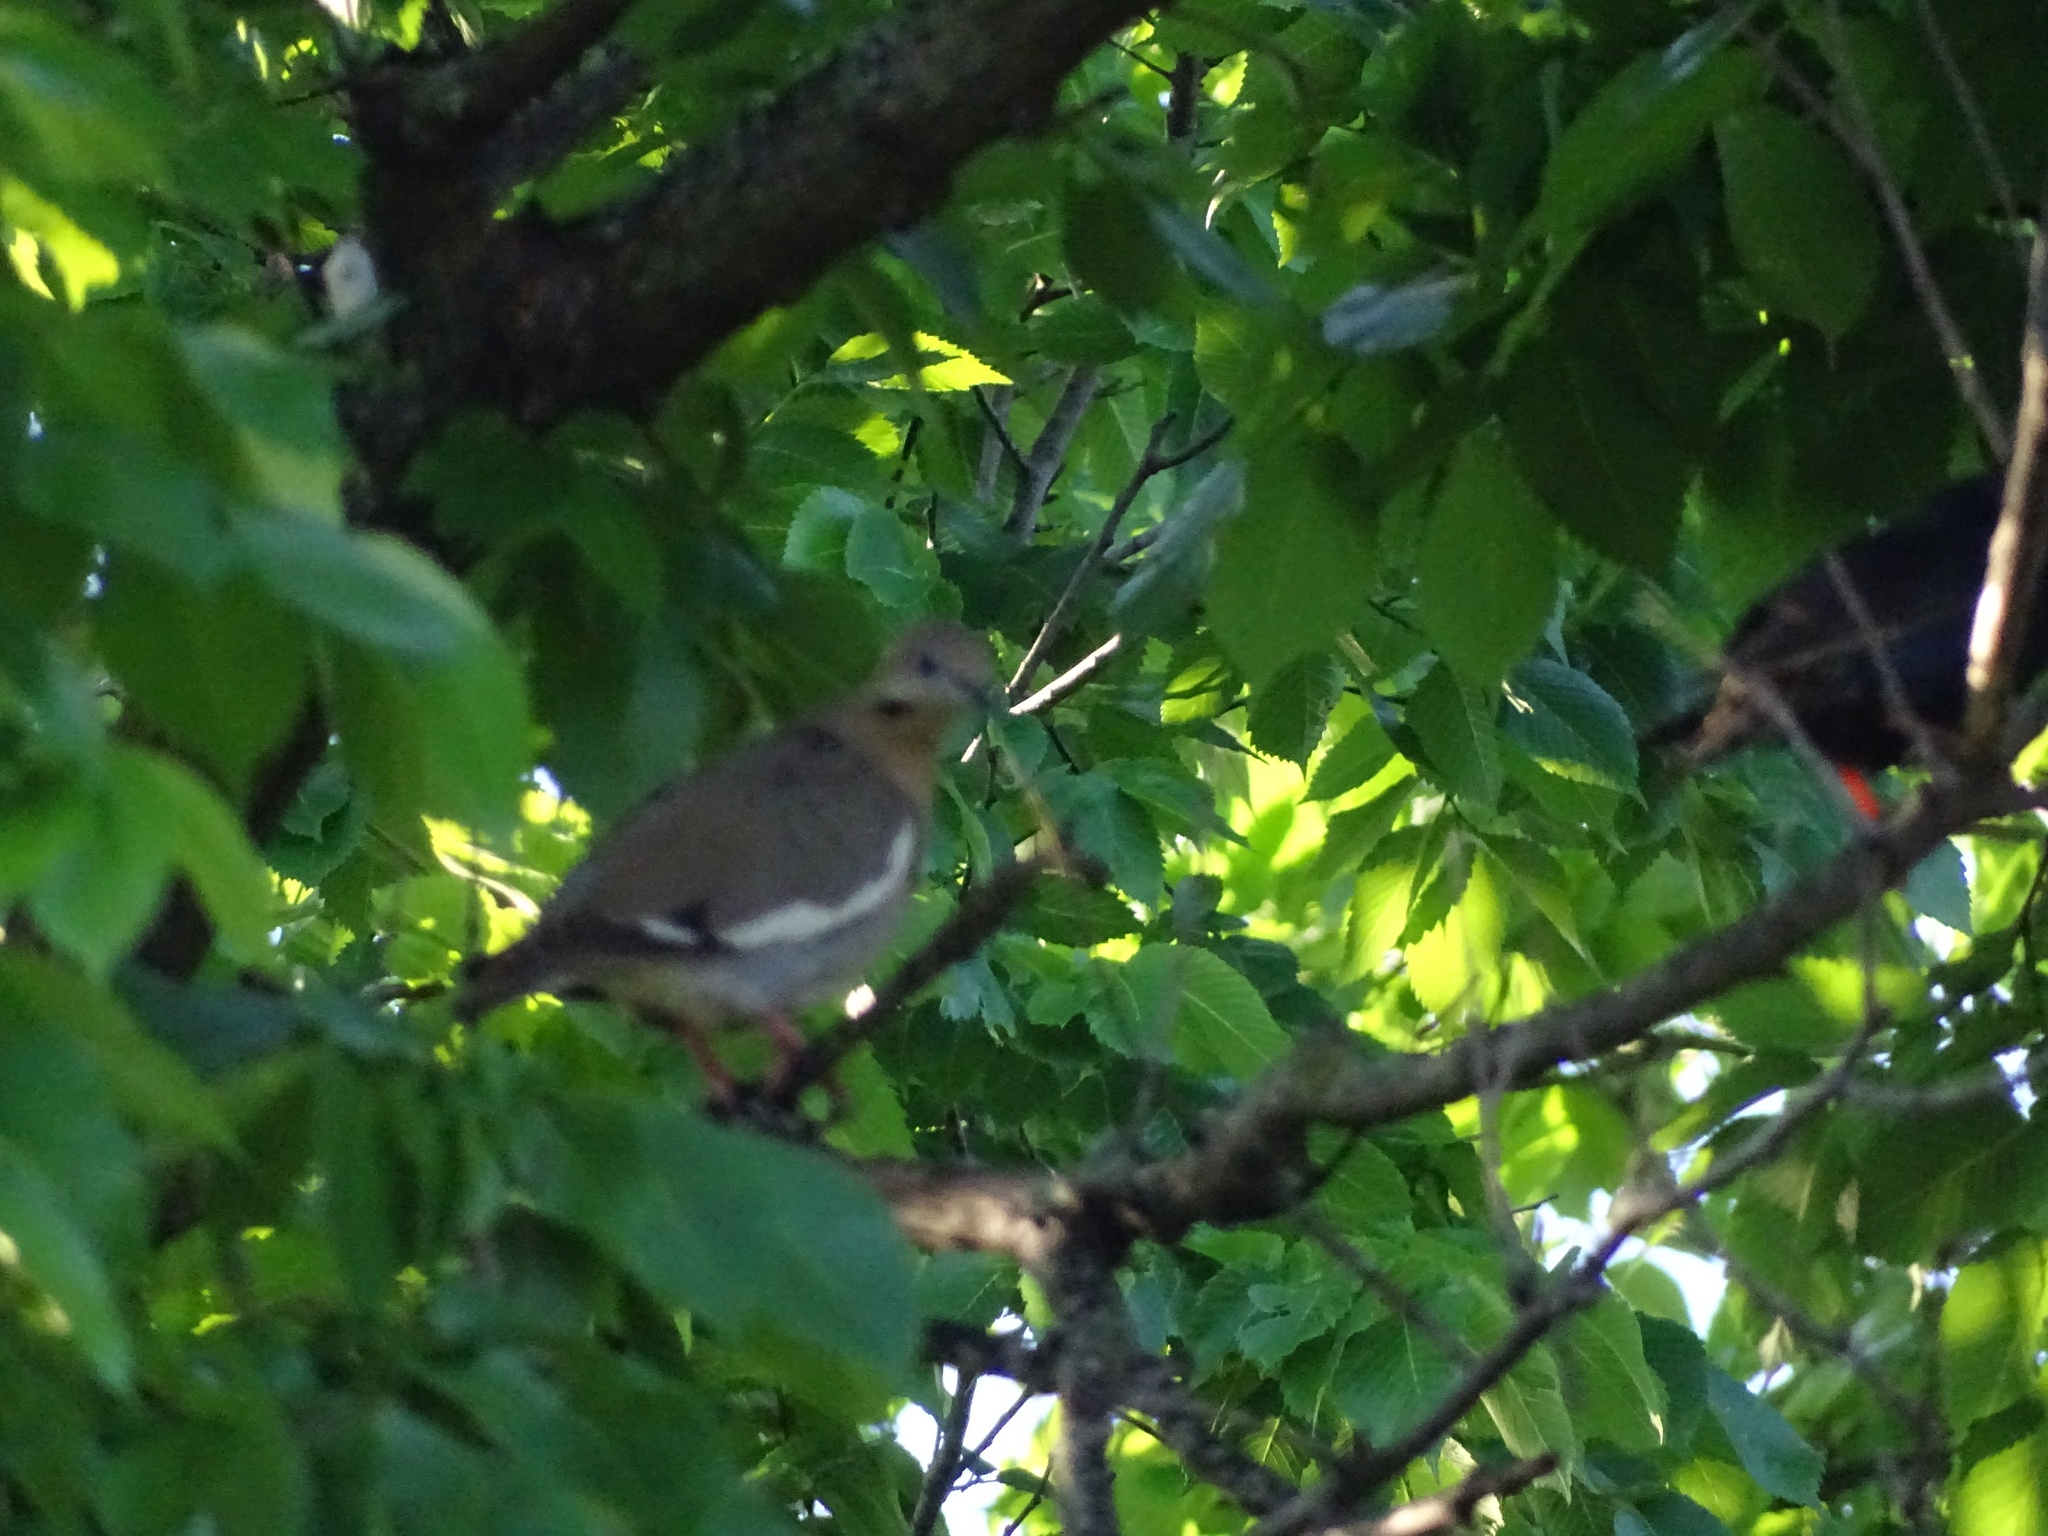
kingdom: Animalia
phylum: Chordata
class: Aves
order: Columbiformes
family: Columbidae
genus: Zenaida
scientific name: Zenaida asiatica
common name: White-winged dove
